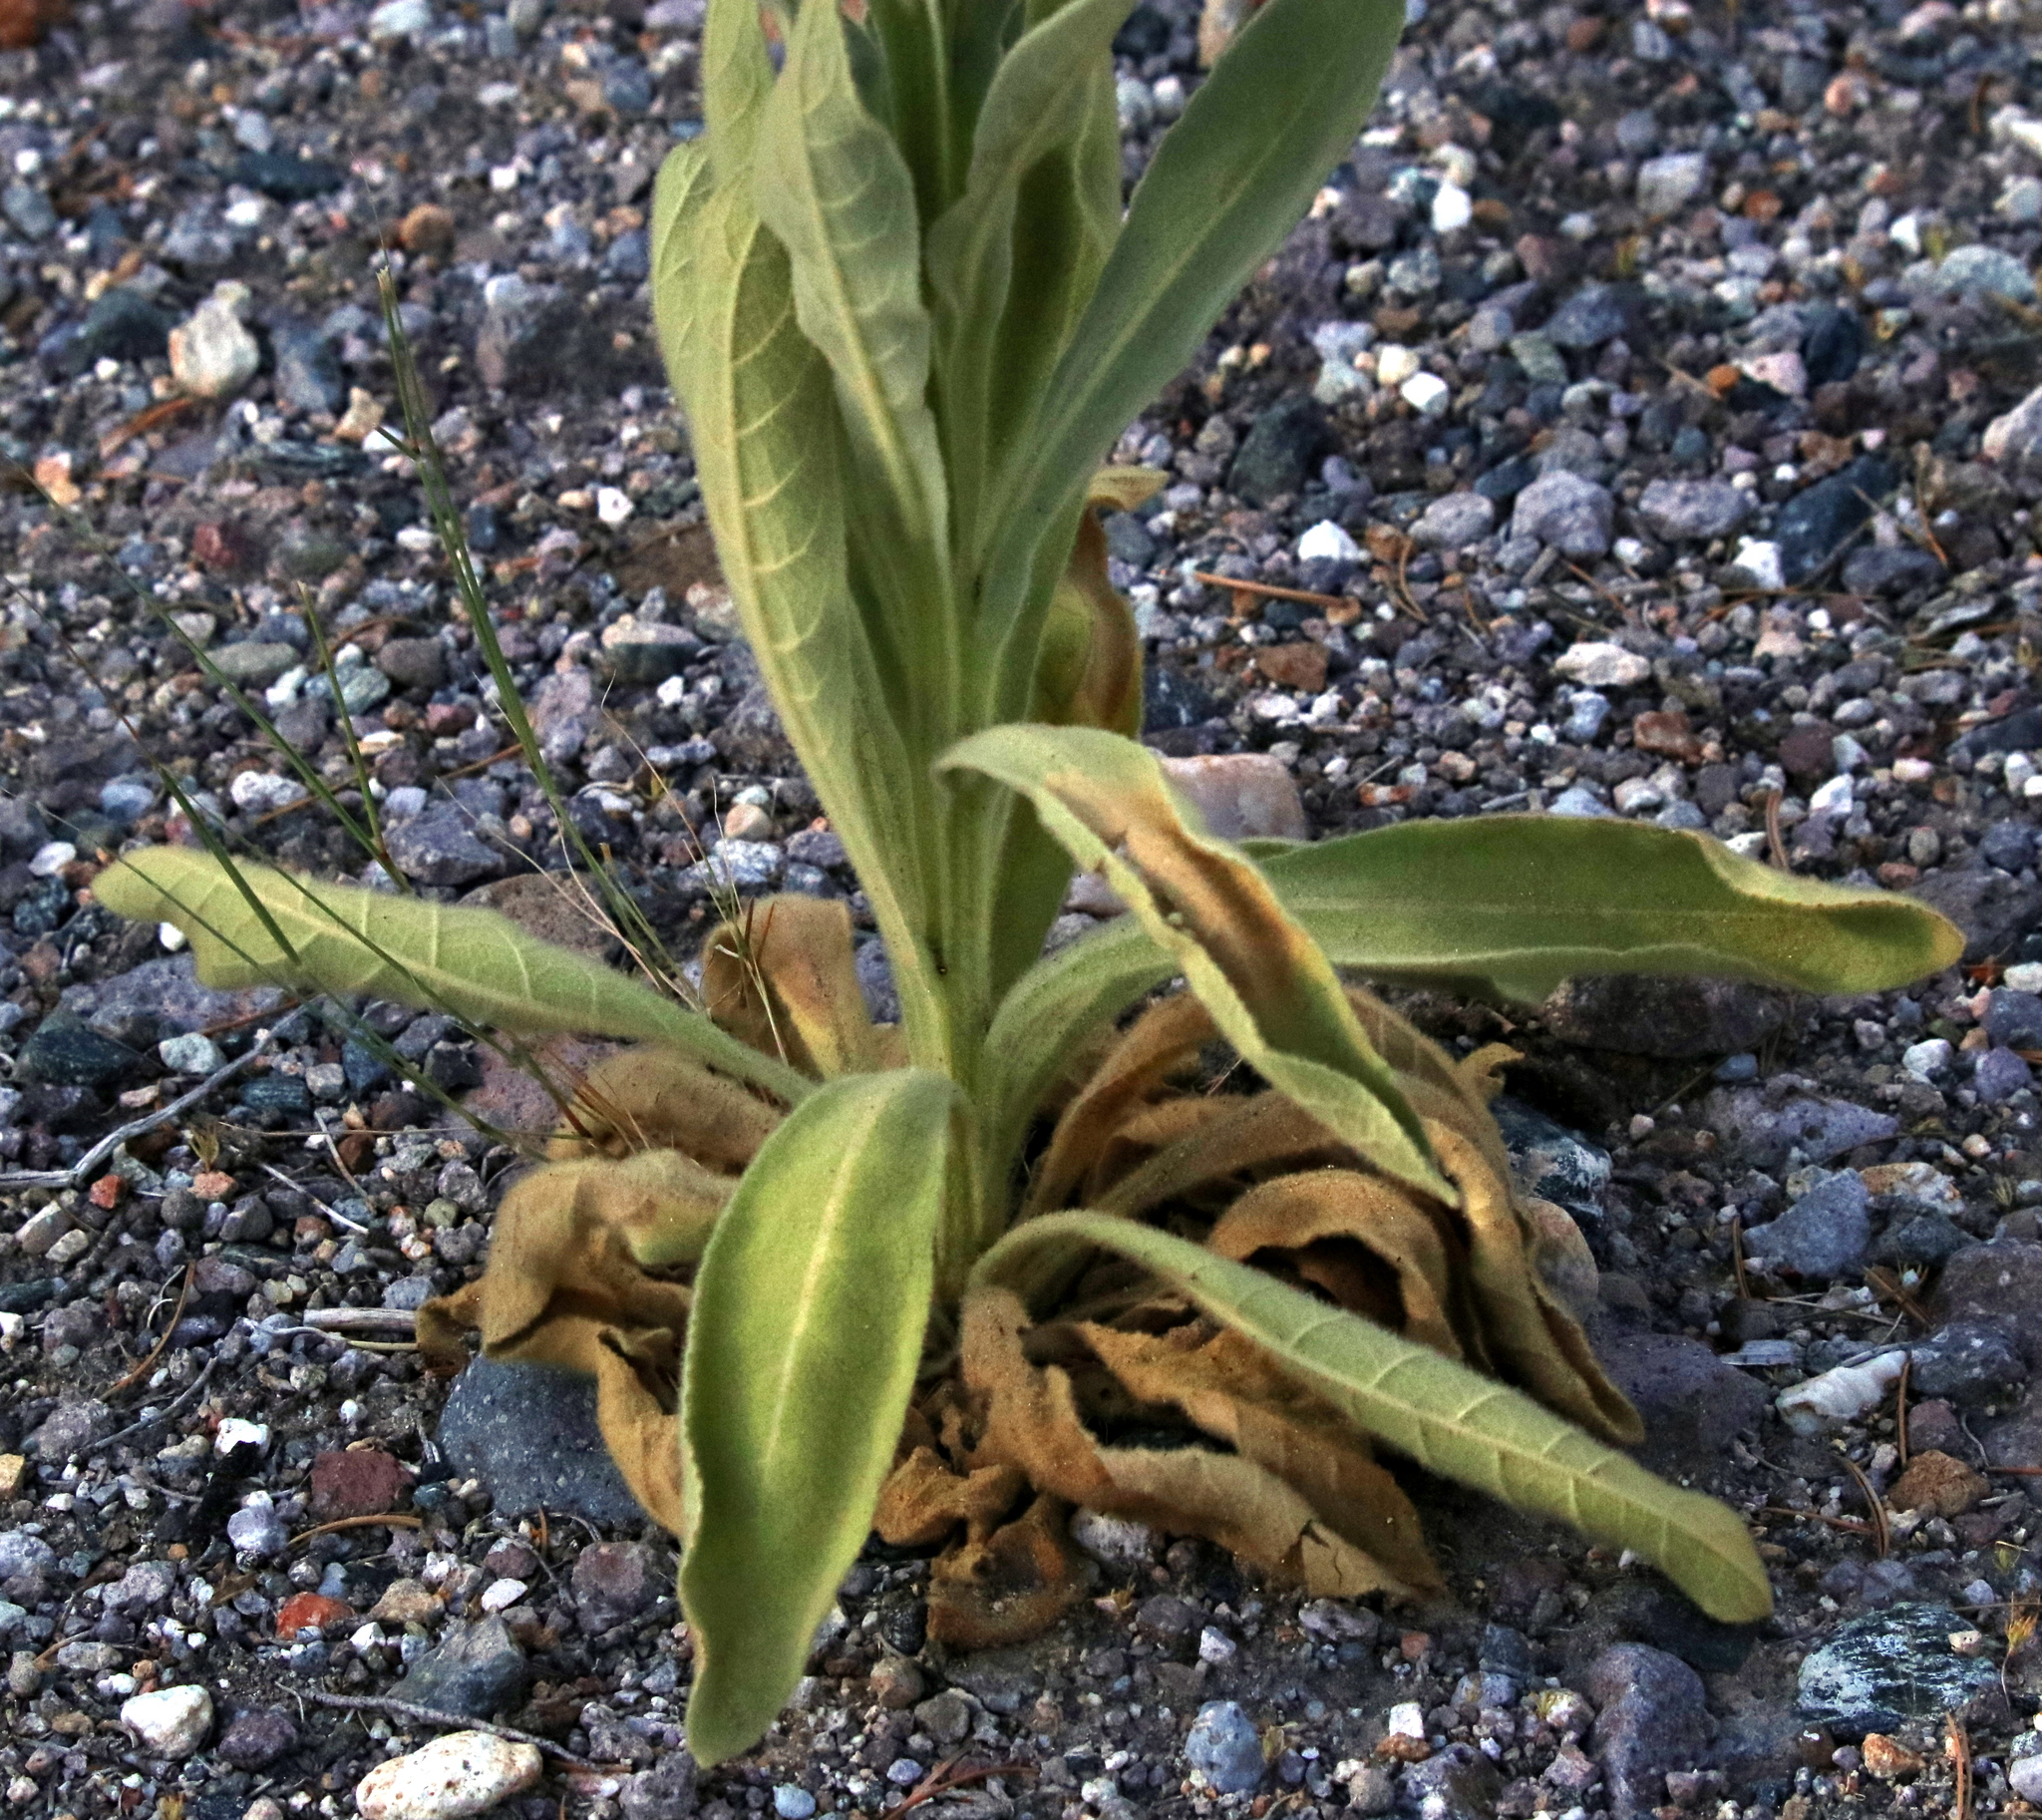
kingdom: Plantae
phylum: Tracheophyta
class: Magnoliopsida
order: Lamiales
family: Scrophulariaceae
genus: Verbascum
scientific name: Verbascum thapsus
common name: Common mullein
